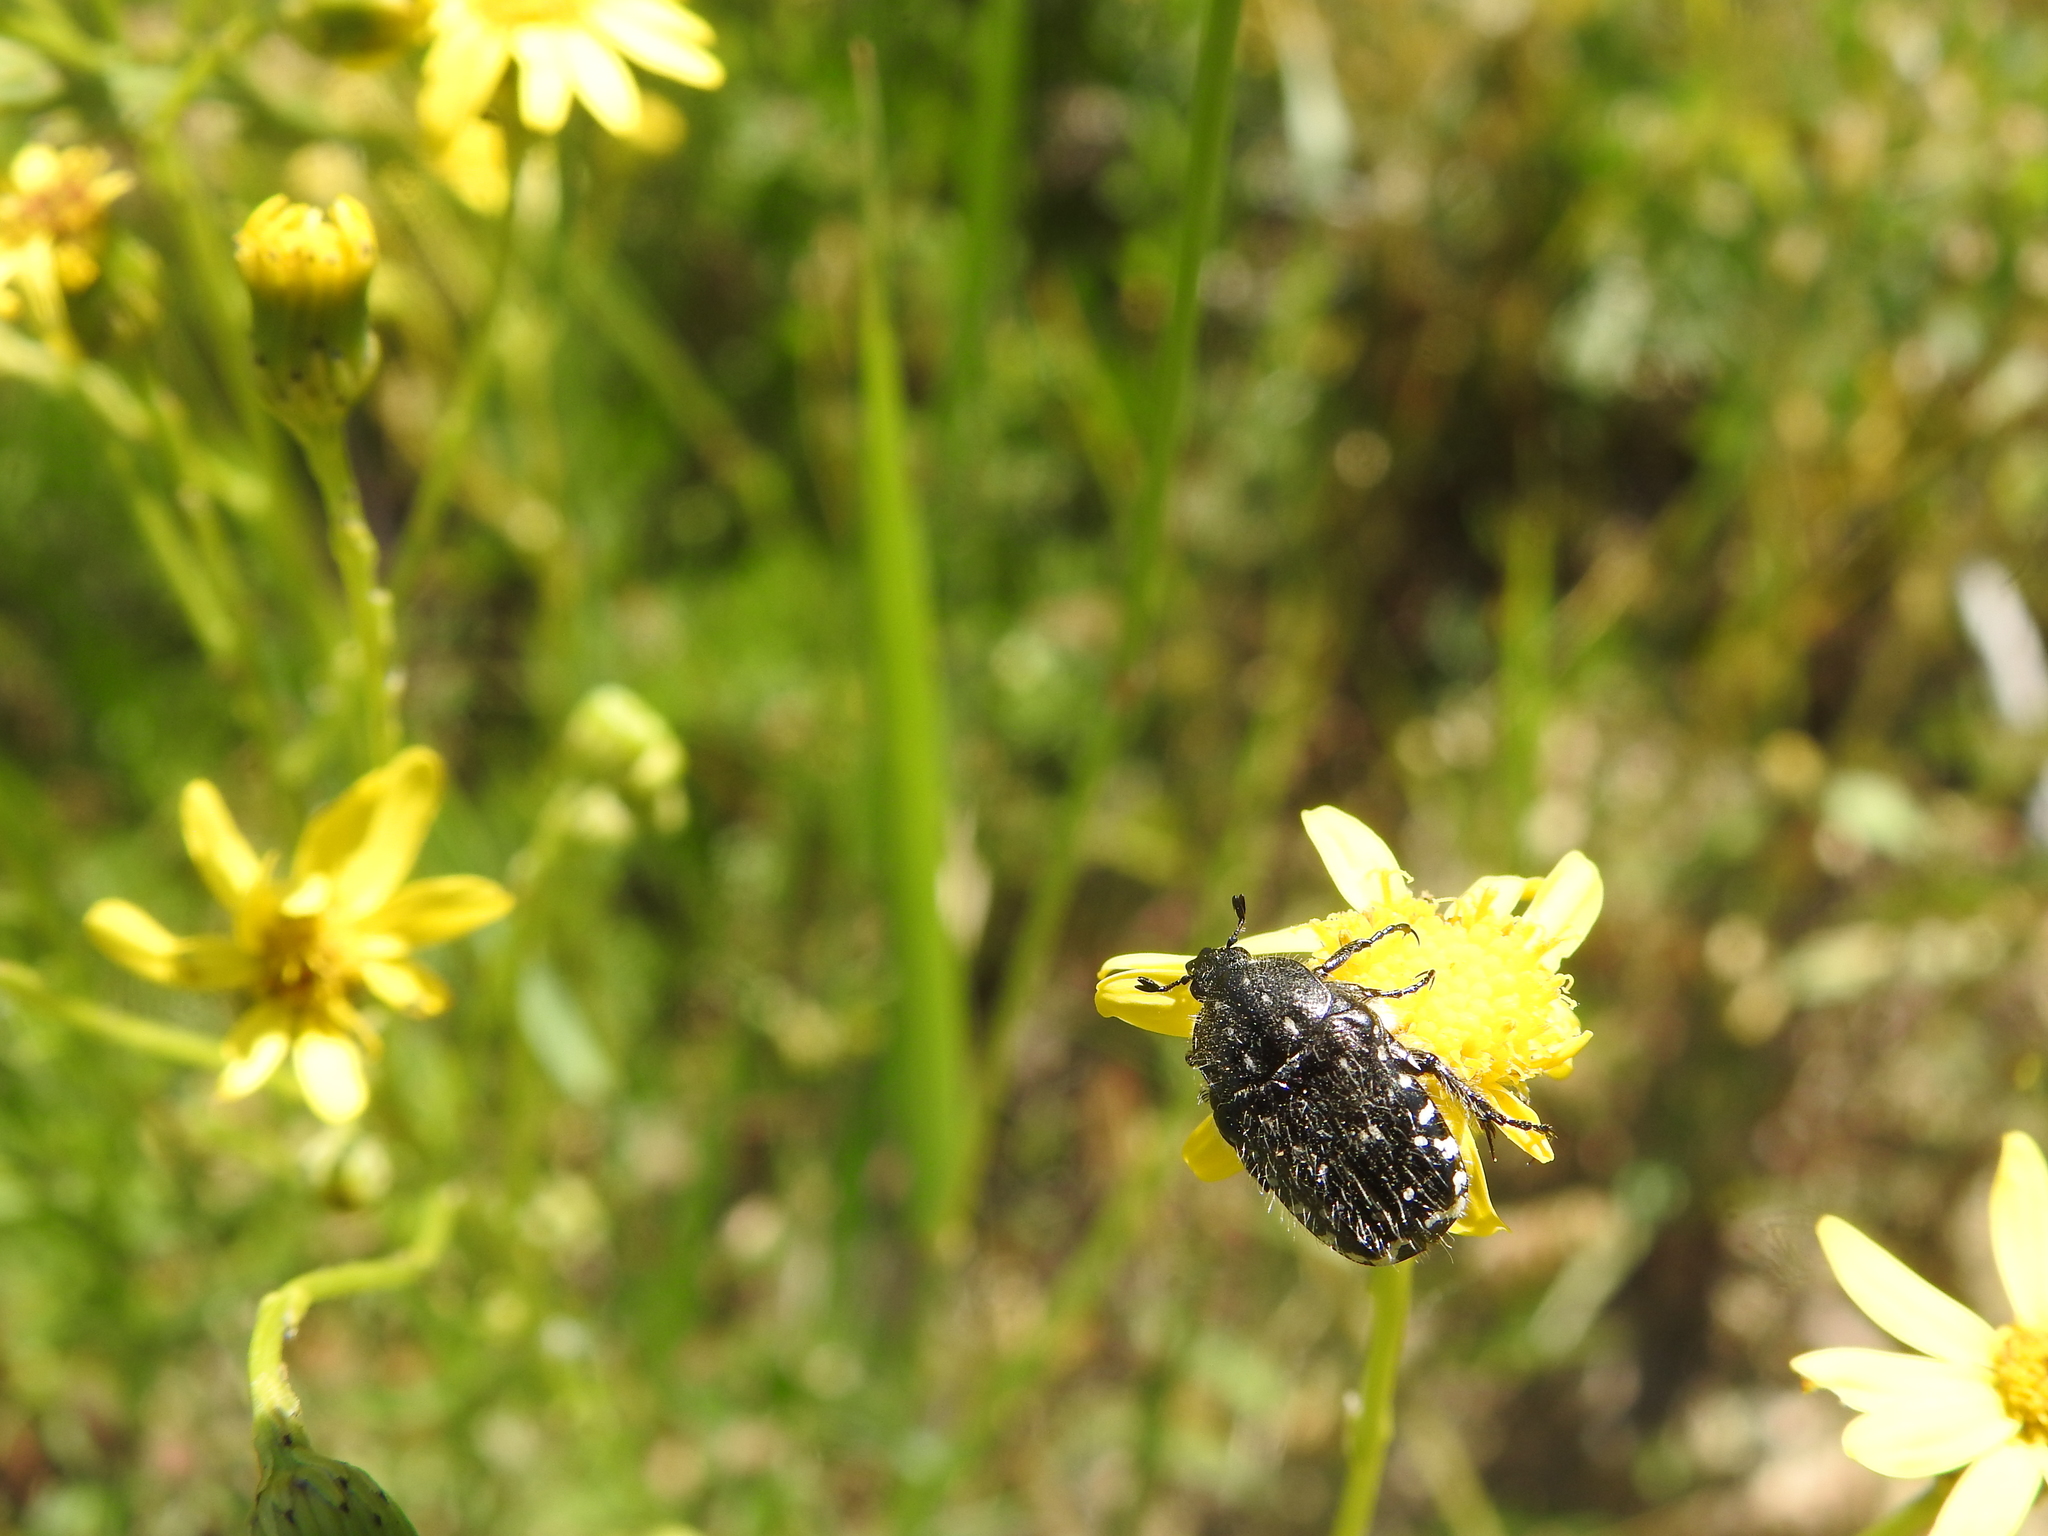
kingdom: Animalia
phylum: Arthropoda
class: Insecta
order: Coleoptera
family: Scarabaeidae
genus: Oxythyrea
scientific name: Oxythyrea funesta
